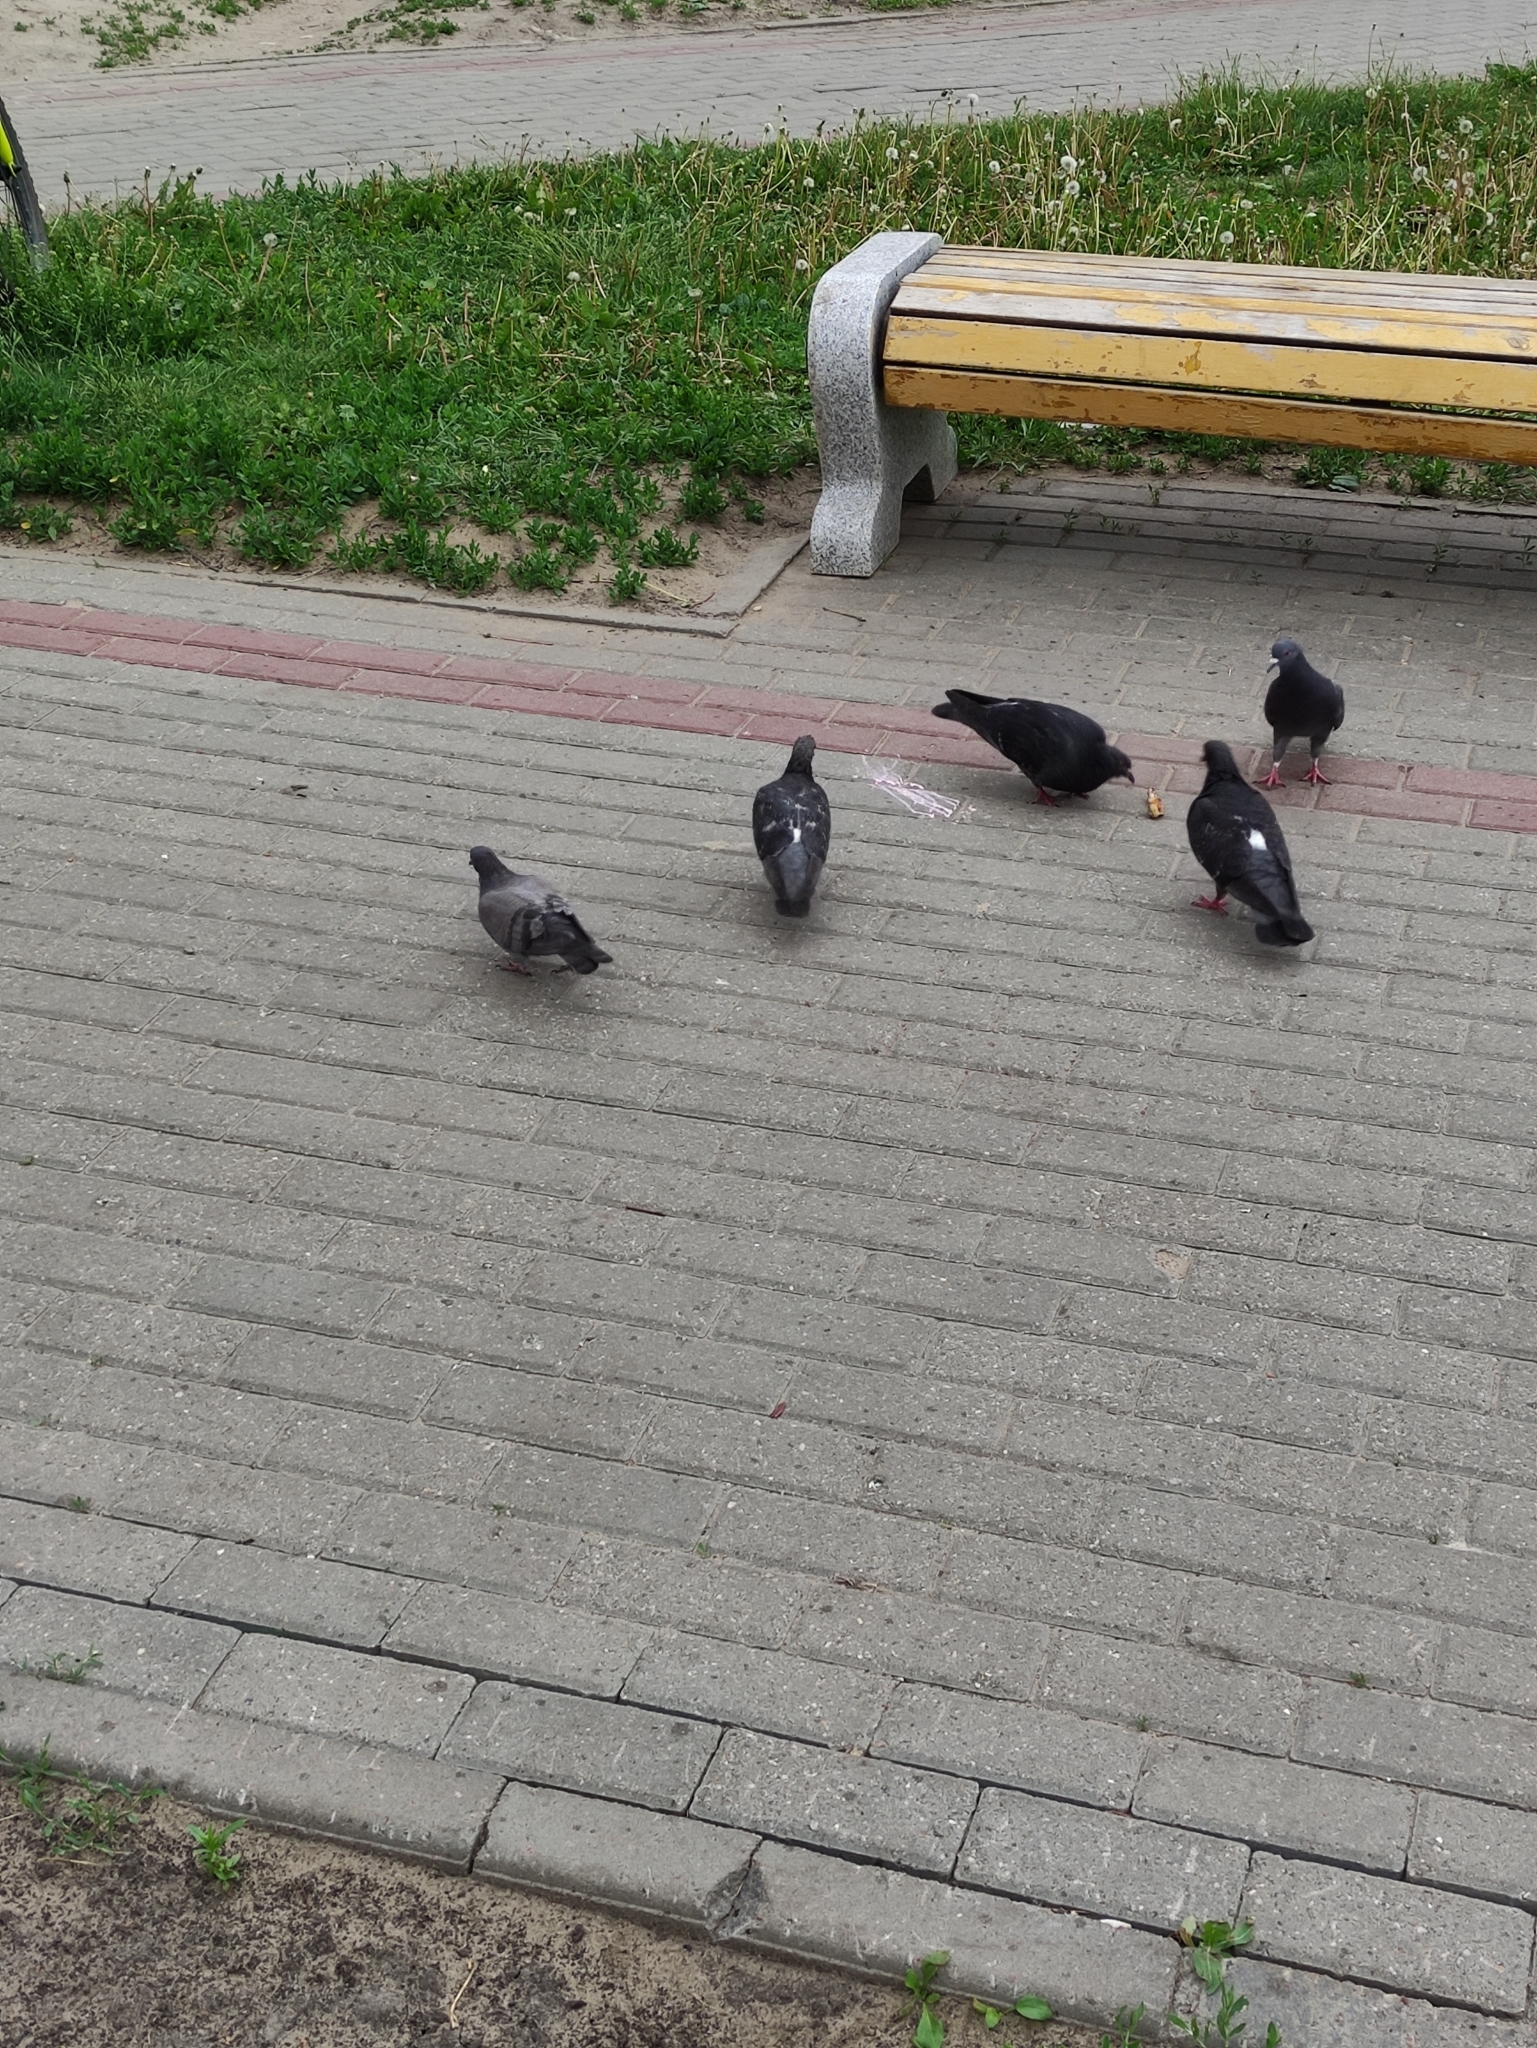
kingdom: Animalia
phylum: Chordata
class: Aves
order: Columbiformes
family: Columbidae
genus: Columba
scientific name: Columba livia
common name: Rock pigeon
